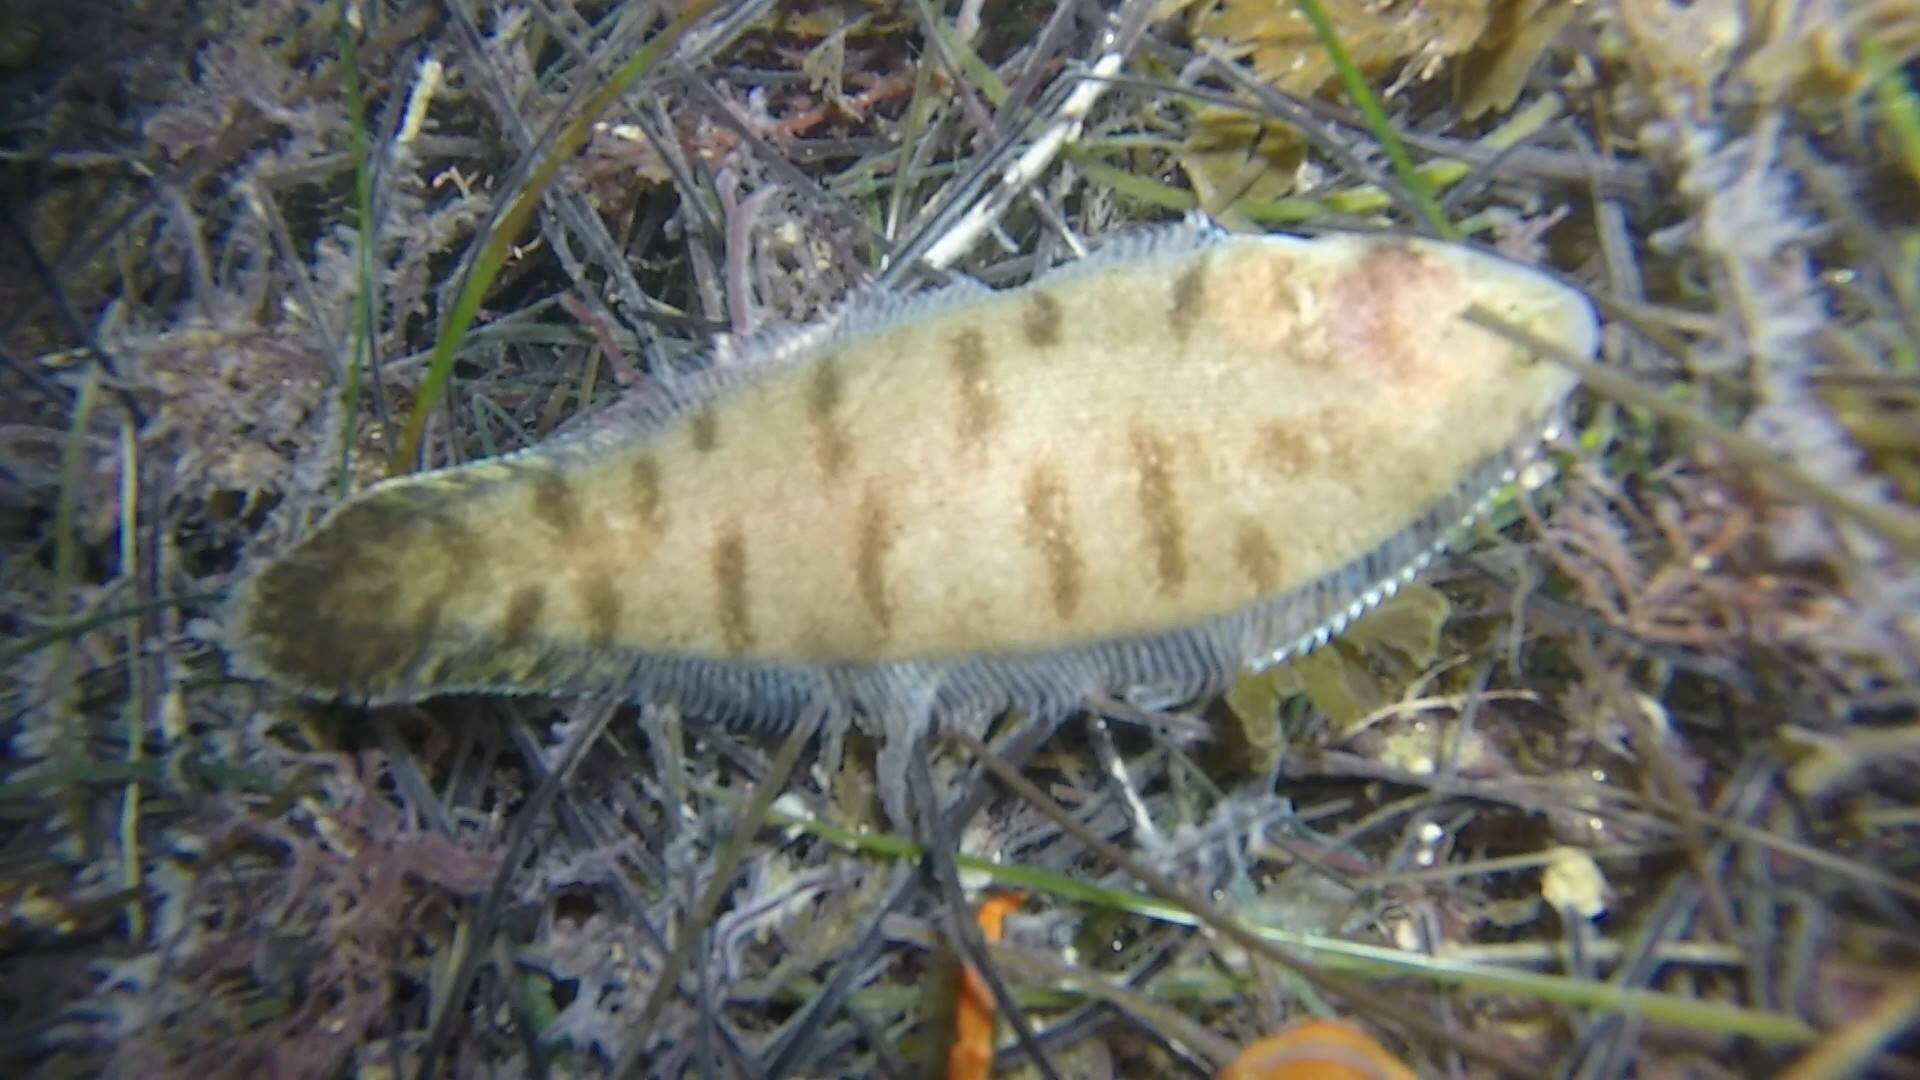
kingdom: Animalia
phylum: Chordata
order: Pleuronectiformes
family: Cynoglossidae
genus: Symphurus
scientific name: Symphurus atricaudus
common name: California tonguefish
